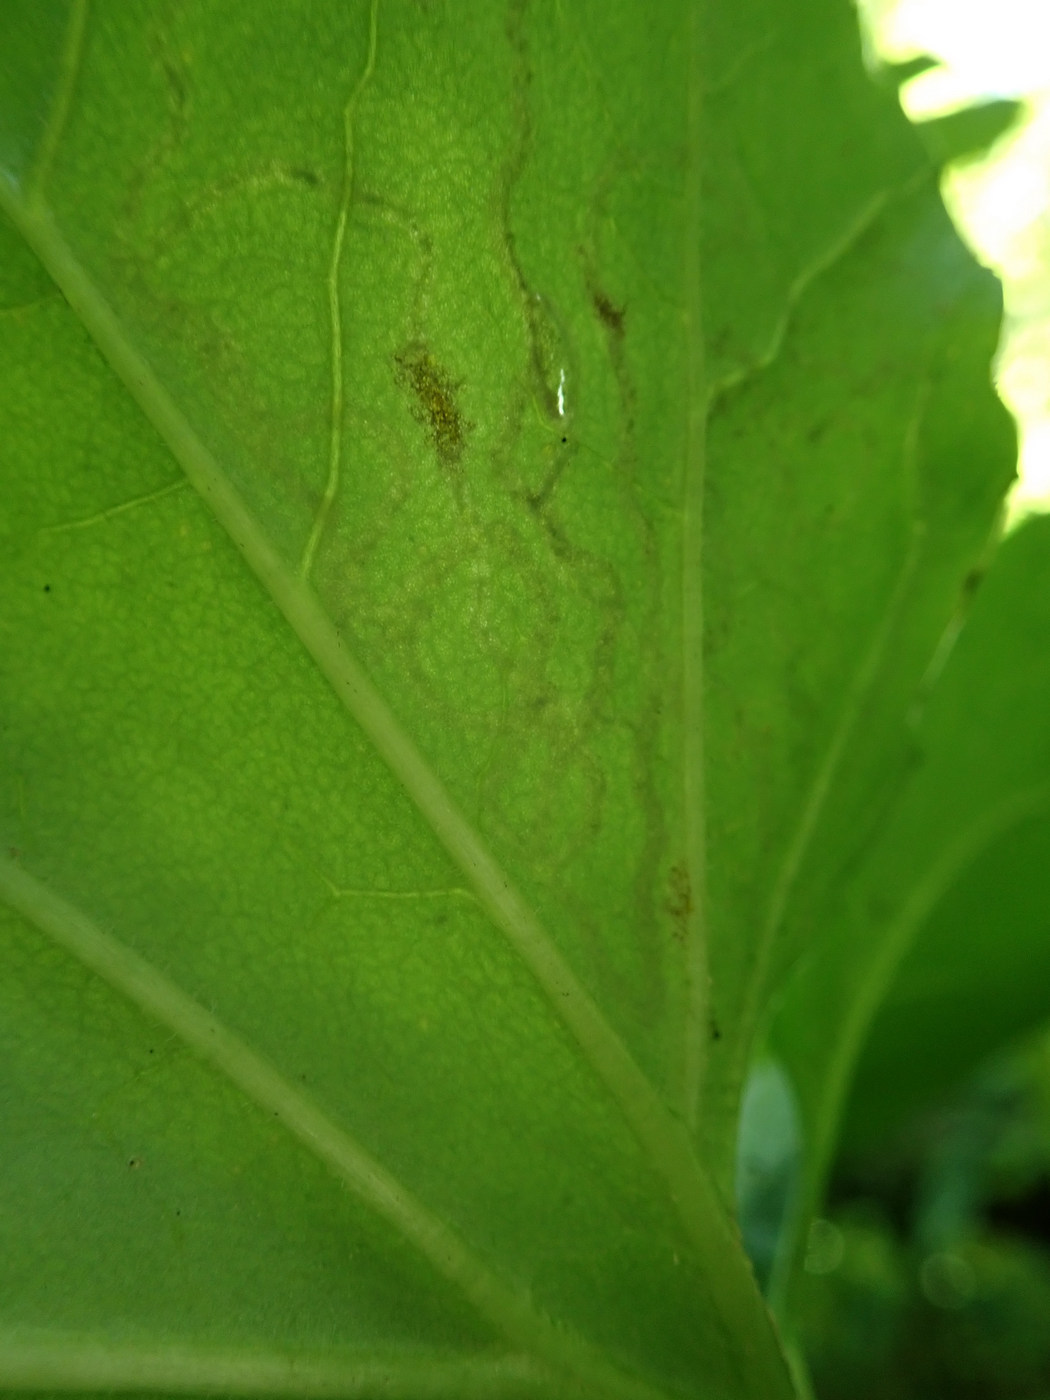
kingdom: Animalia
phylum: Arthropoda
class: Insecta
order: Lepidoptera
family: Gracillariidae
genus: Phyllocnistis
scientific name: Phyllocnistis insignis
